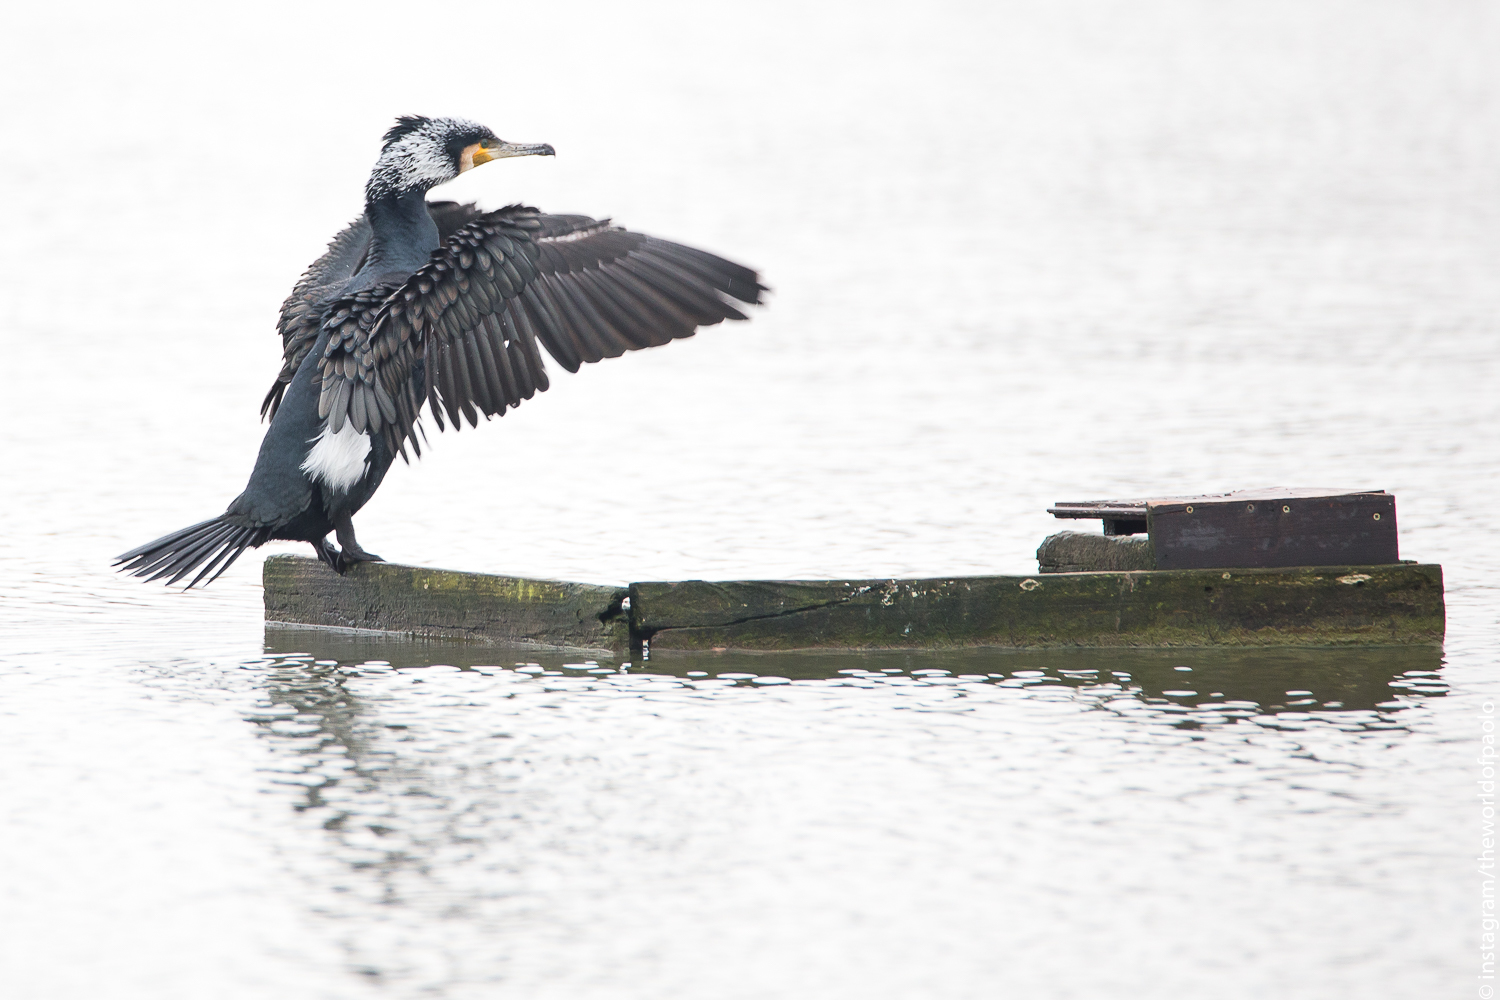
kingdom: Animalia
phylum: Chordata
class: Aves
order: Suliformes
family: Phalacrocoracidae
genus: Phalacrocorax
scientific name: Phalacrocorax carbo
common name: Great cormorant
